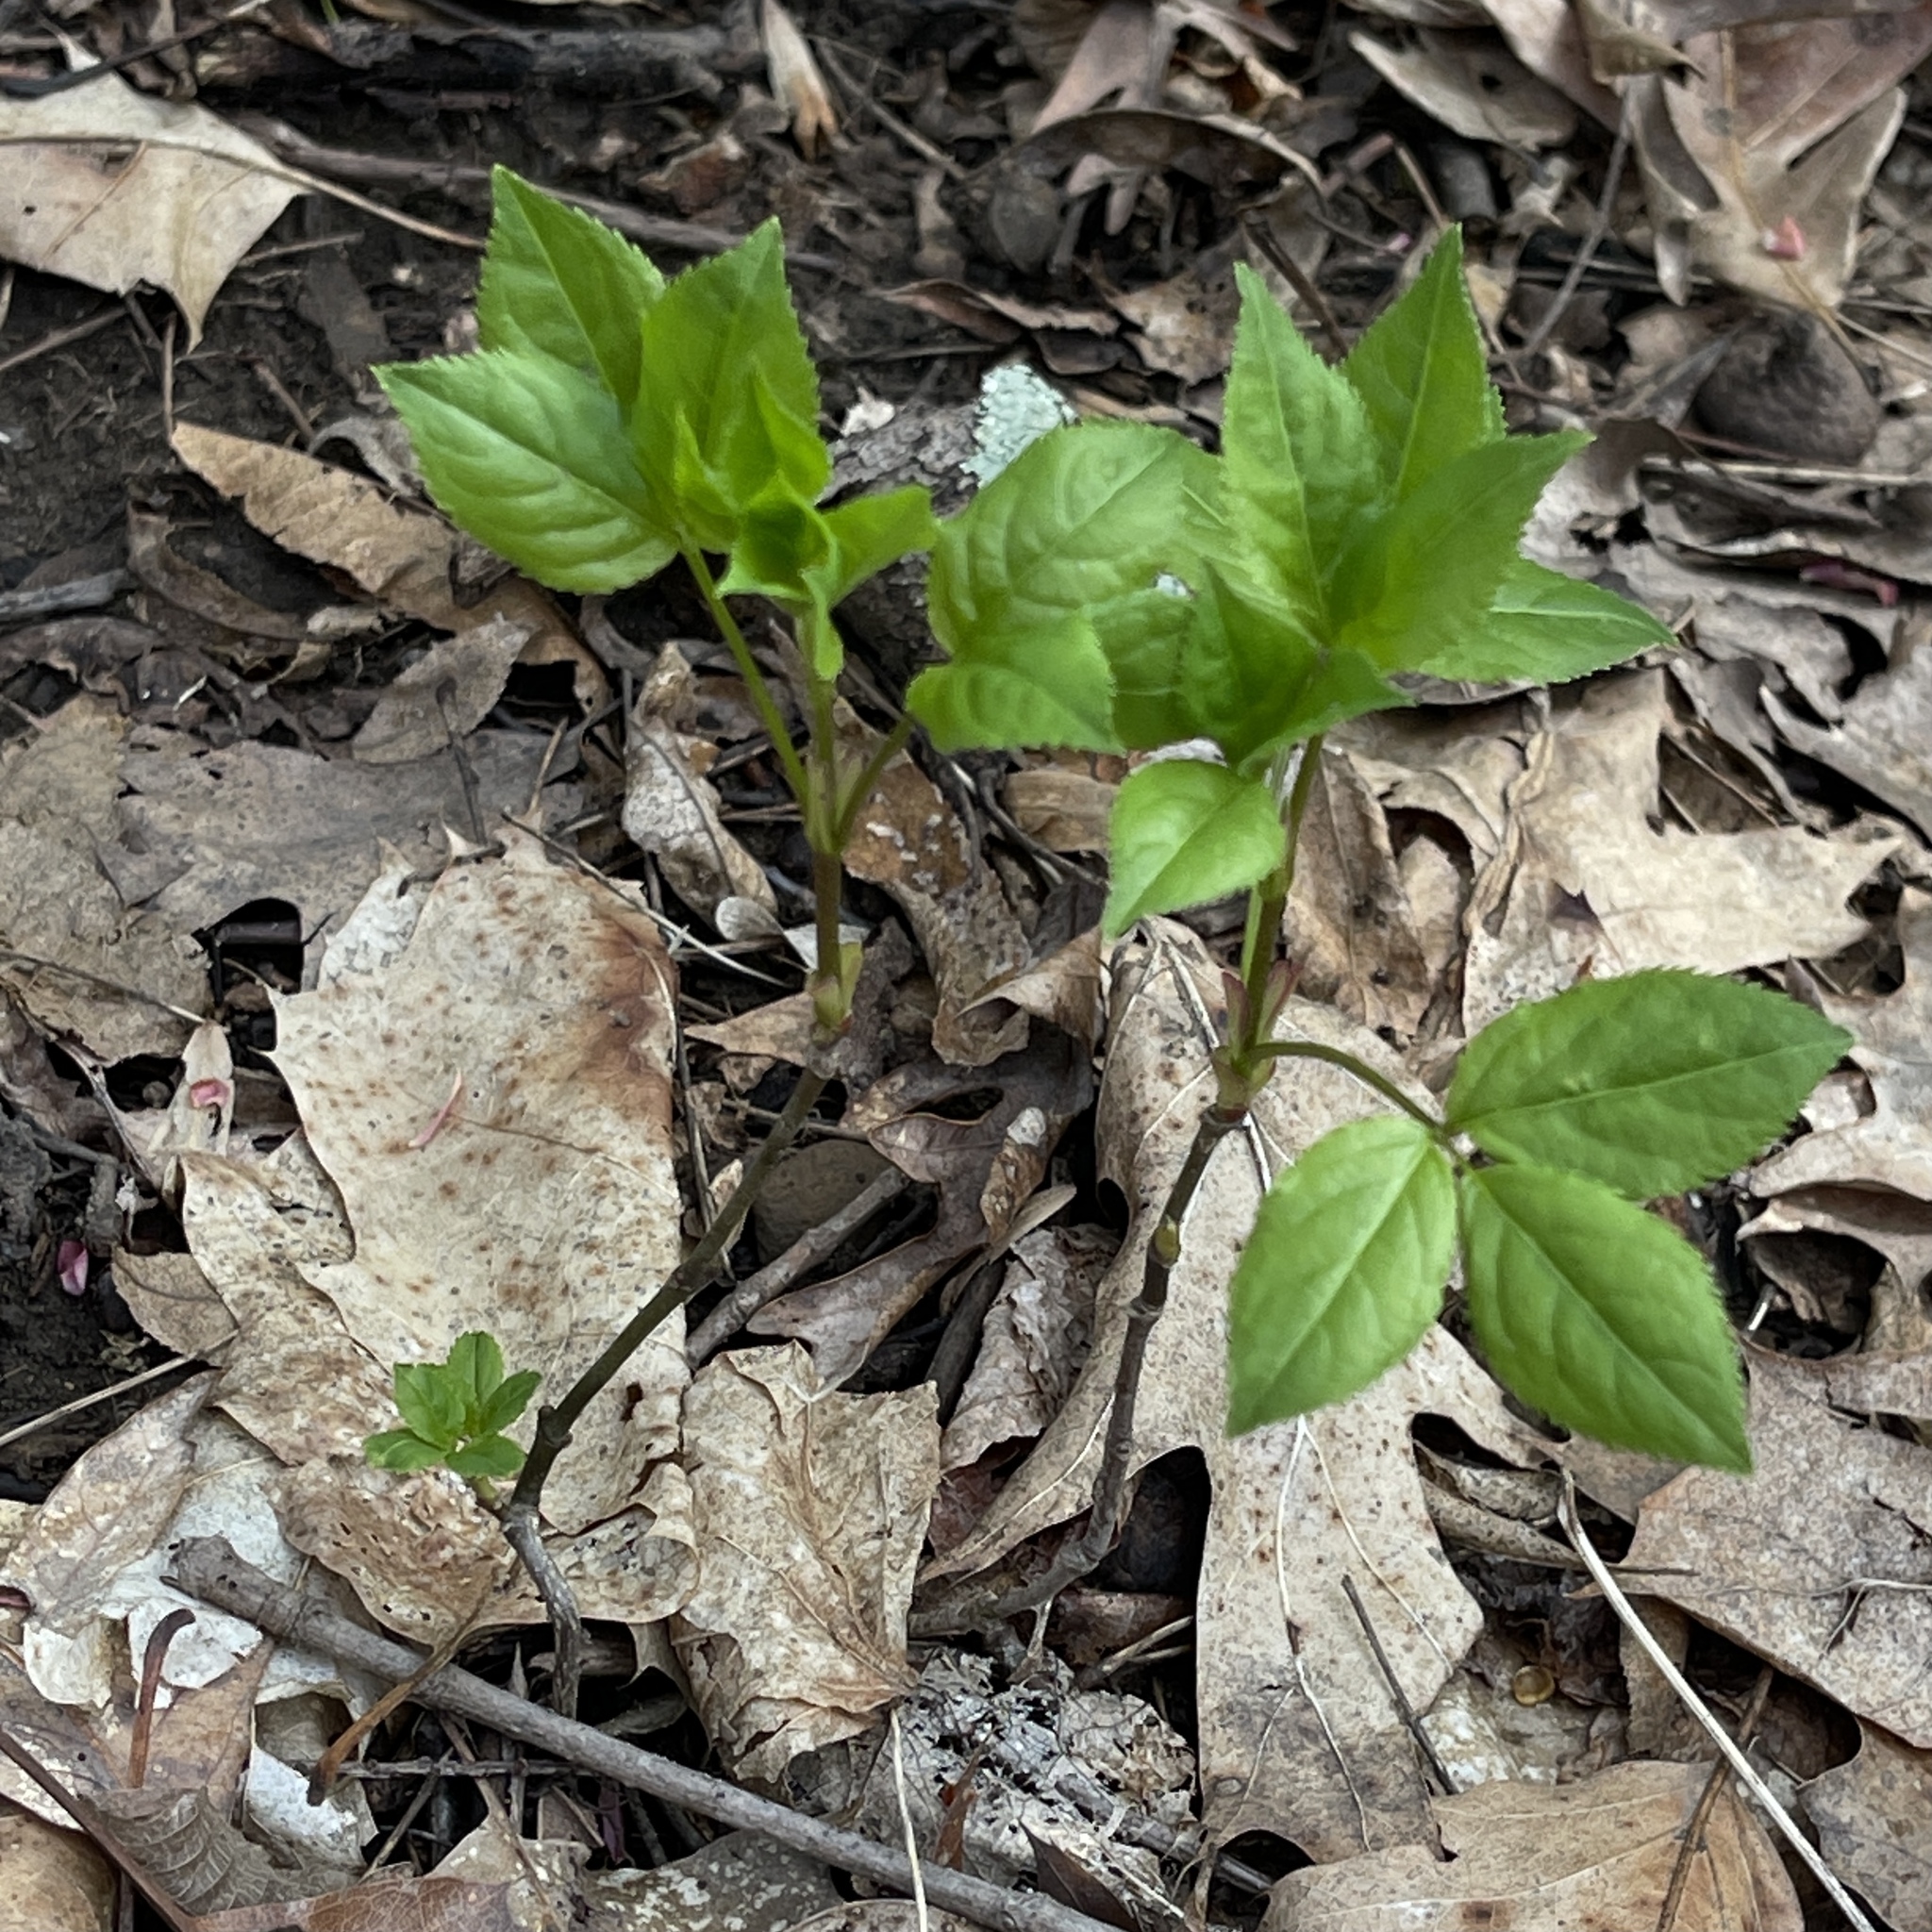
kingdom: Plantae
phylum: Tracheophyta
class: Magnoliopsida
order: Crossosomatales
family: Staphyleaceae
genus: Staphylea
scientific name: Staphylea trifolia
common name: American bladdernut
